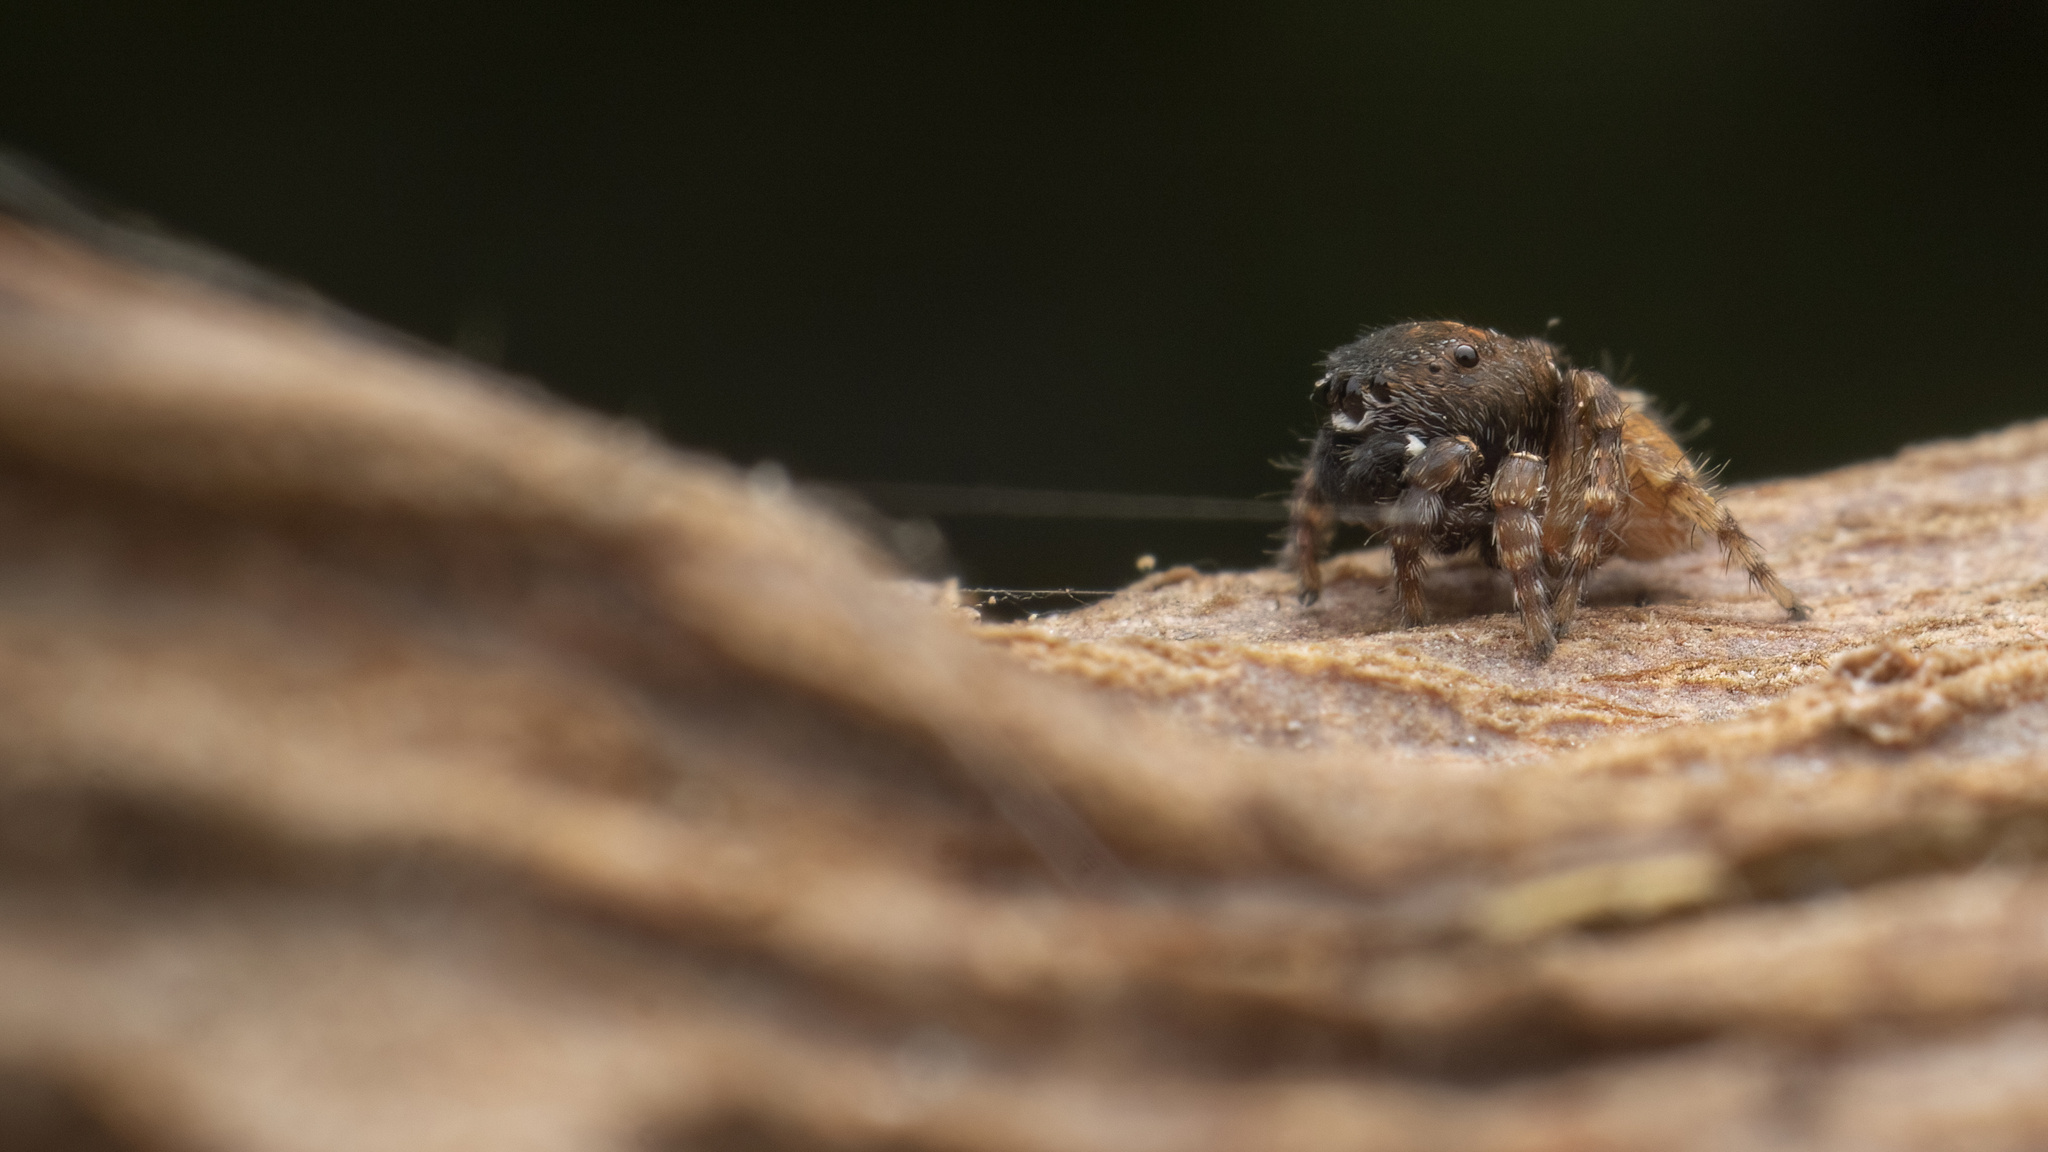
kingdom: Animalia
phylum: Arthropoda
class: Arachnida
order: Araneae
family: Salticidae
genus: Phanuelus
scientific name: Phanuelus gladstone
